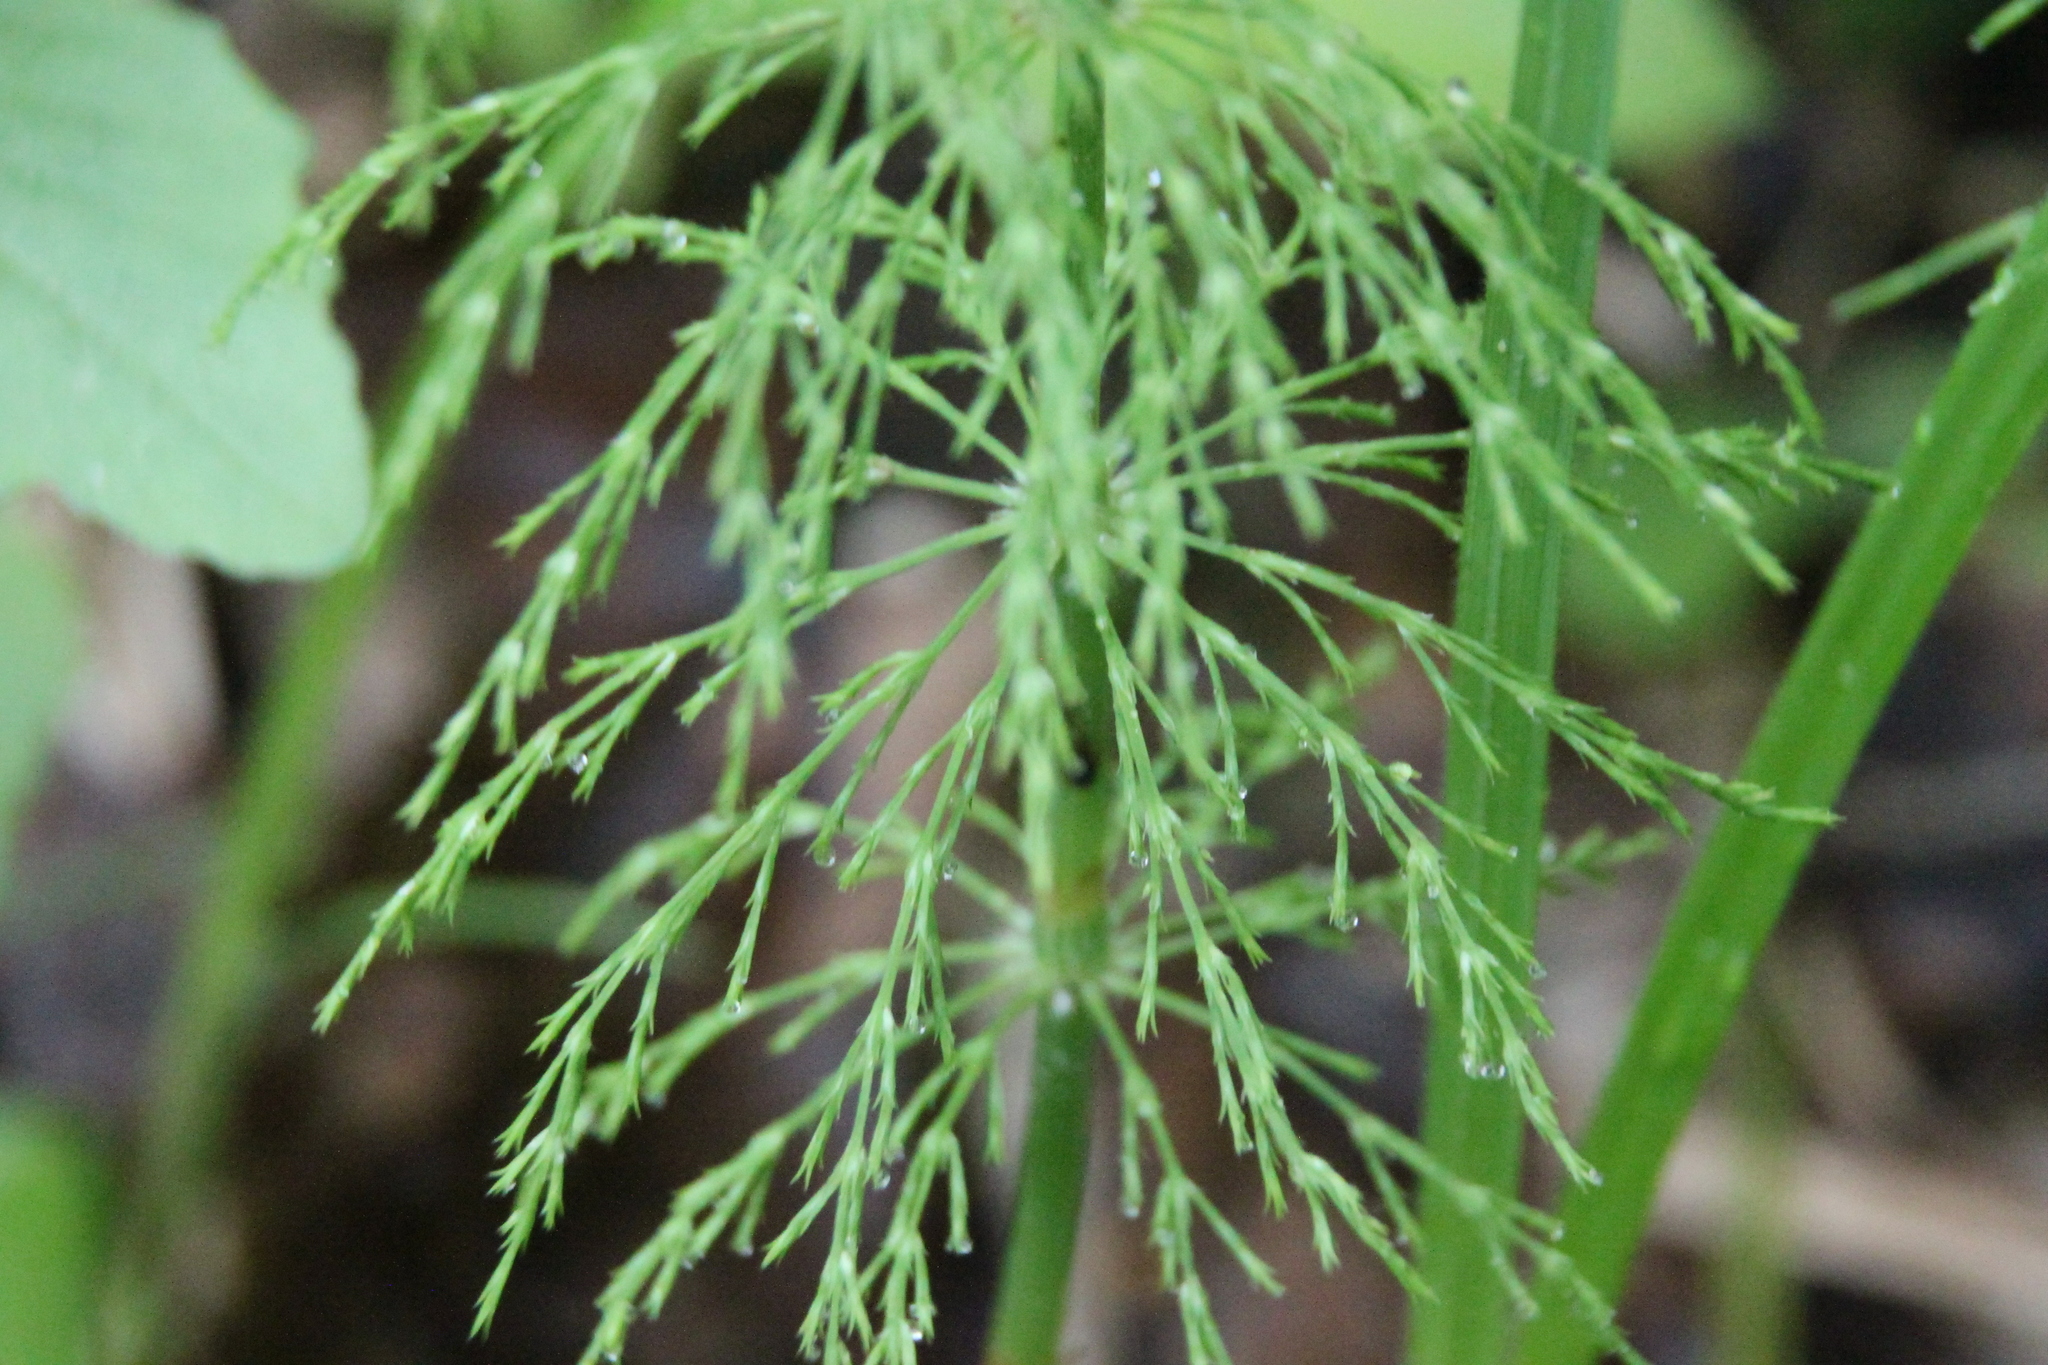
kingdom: Plantae
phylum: Tracheophyta
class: Polypodiopsida
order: Equisetales
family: Equisetaceae
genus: Equisetum
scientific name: Equisetum sylvaticum
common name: Wood horsetail
